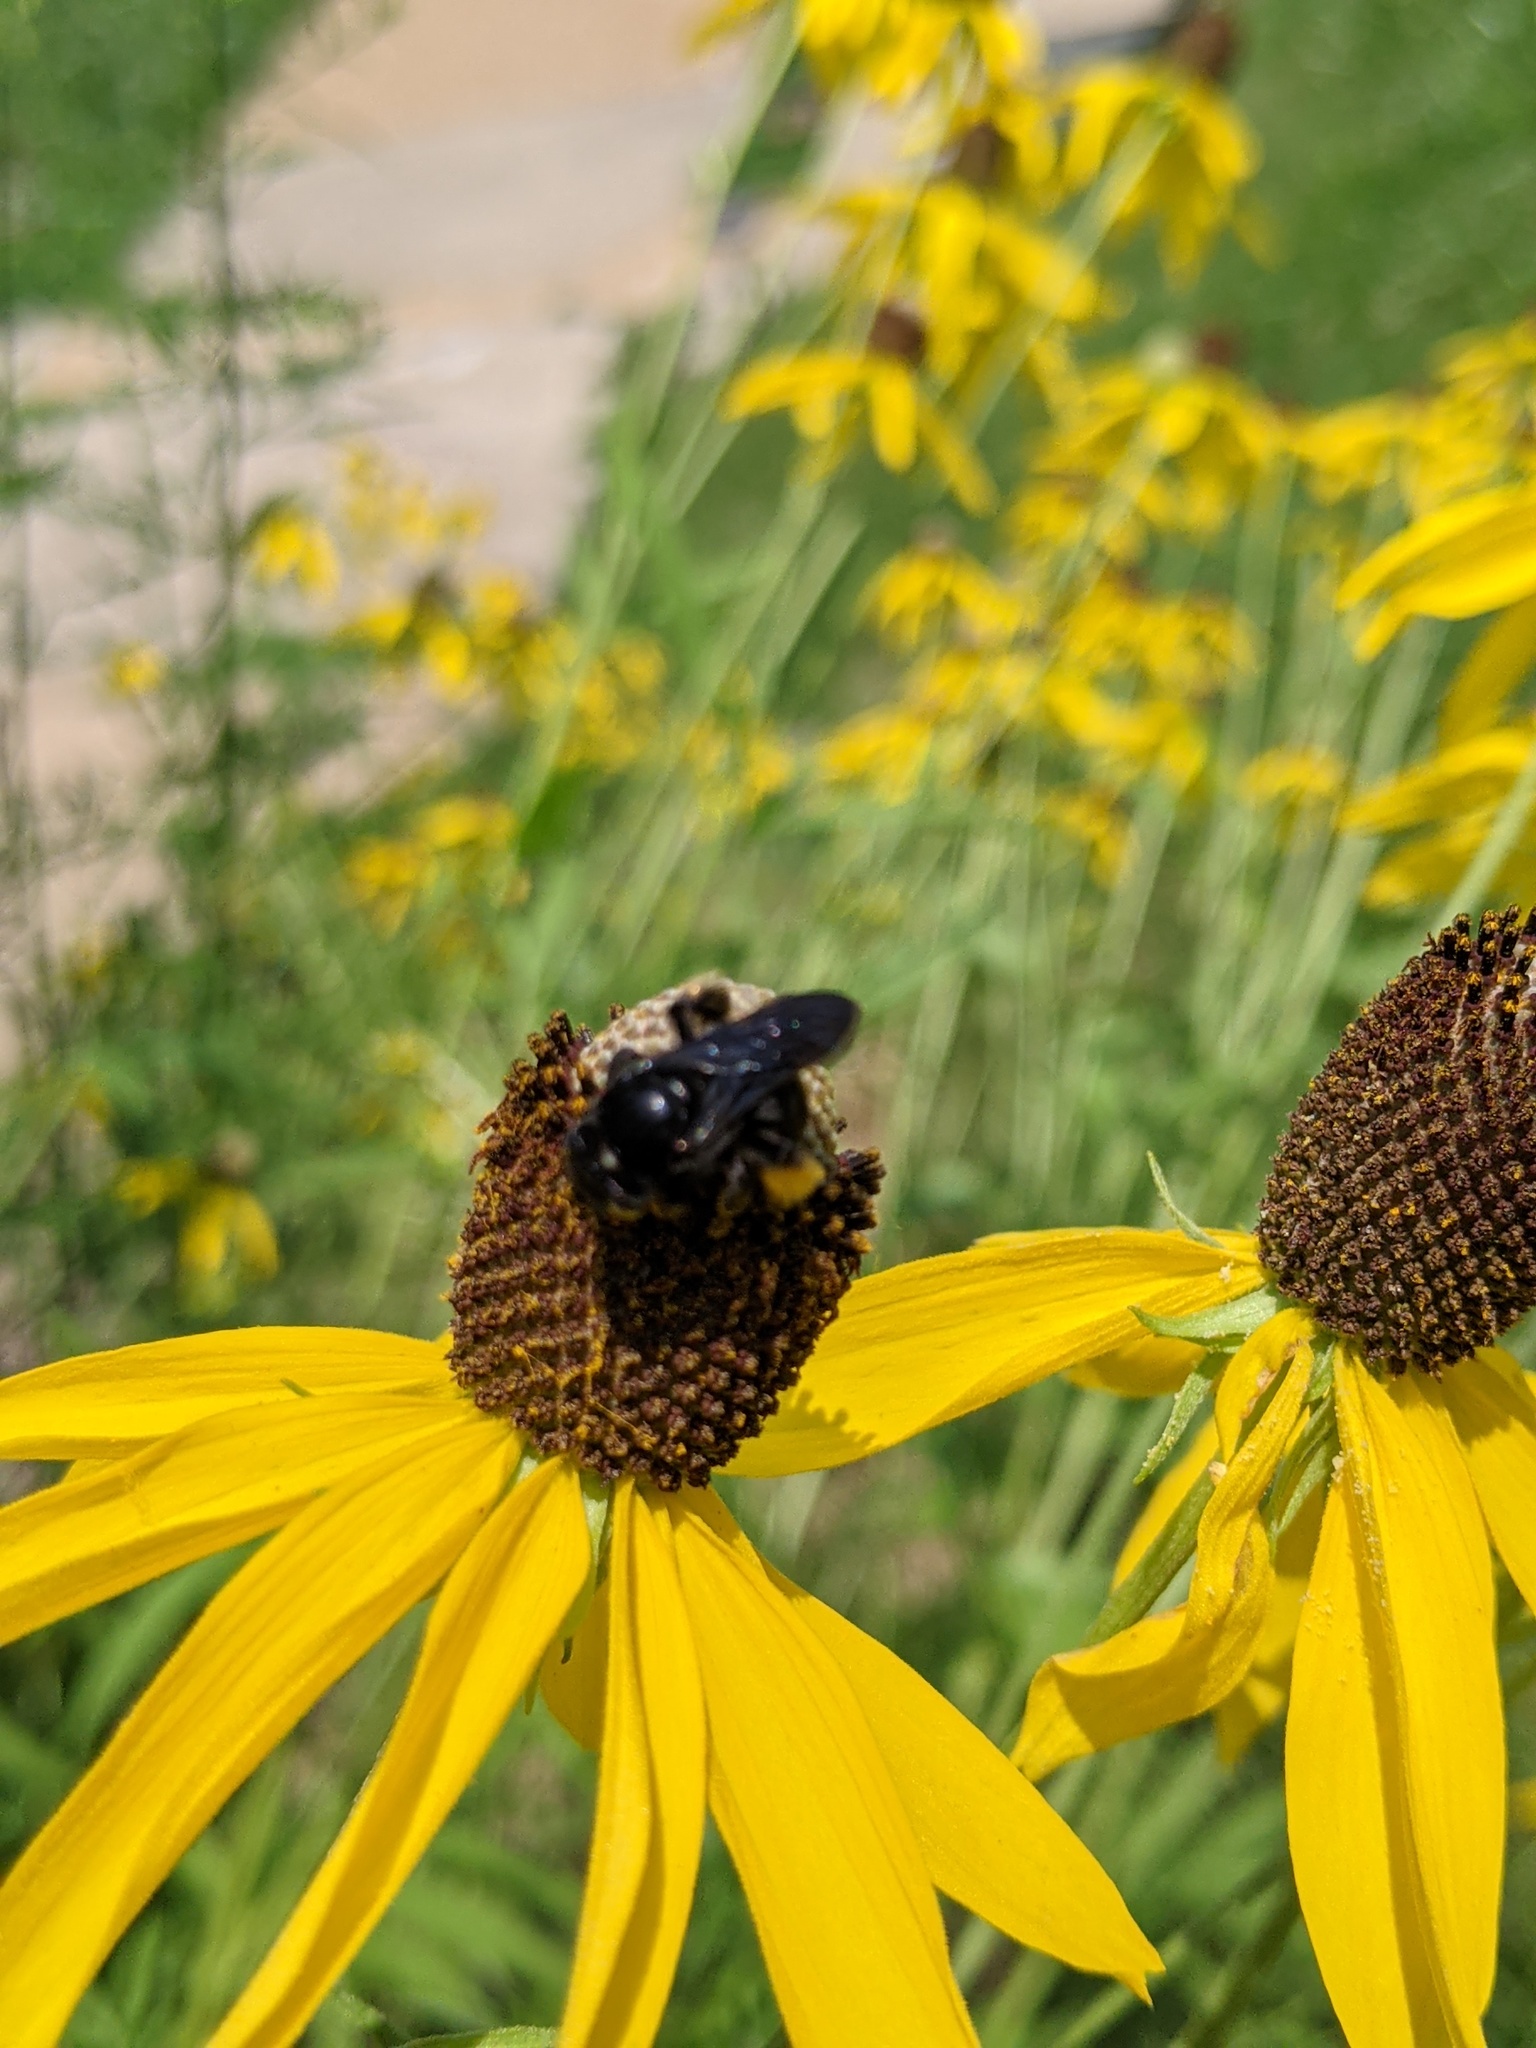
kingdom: Animalia
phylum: Arthropoda
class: Insecta
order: Hymenoptera
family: Apidae
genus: Melissodes
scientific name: Melissodes bimaculatus
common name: Two-spotted long-horned bee
